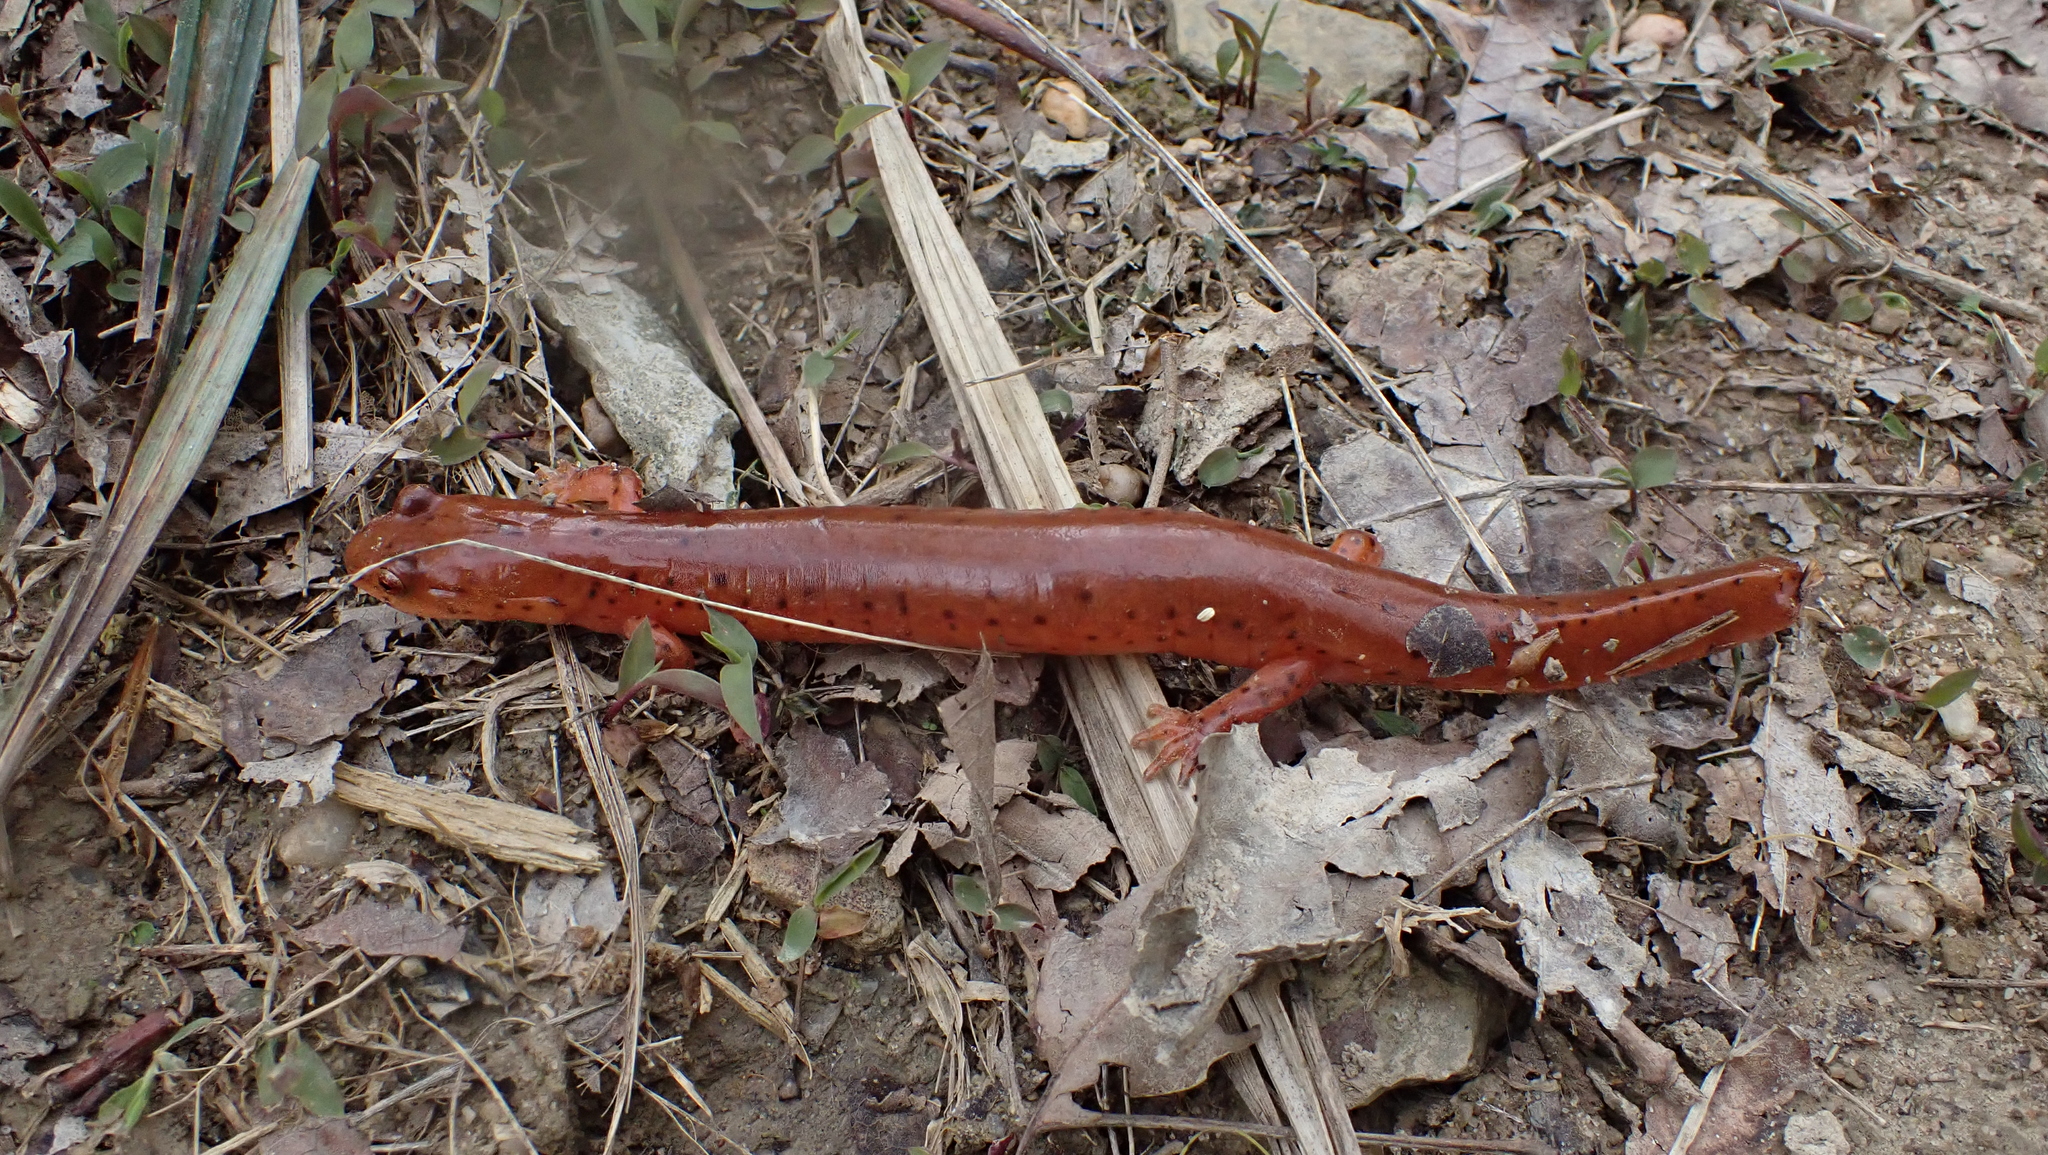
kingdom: Animalia
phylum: Chordata
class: Amphibia
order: Caudata
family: Plethodontidae
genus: Gyrinophilus
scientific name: Gyrinophilus porphyriticus
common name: Spring salamander
